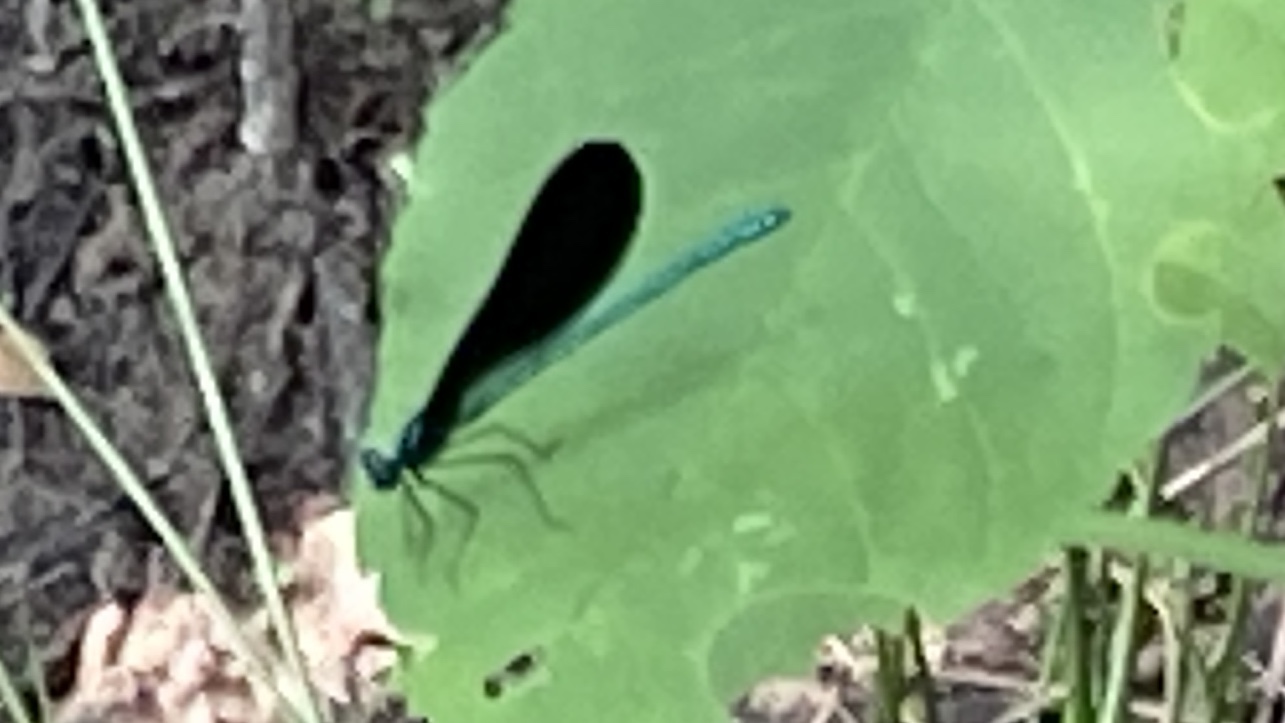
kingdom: Animalia
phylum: Arthropoda
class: Insecta
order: Odonata
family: Calopterygidae
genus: Calopteryx
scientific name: Calopteryx maculata
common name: Ebony jewelwing
